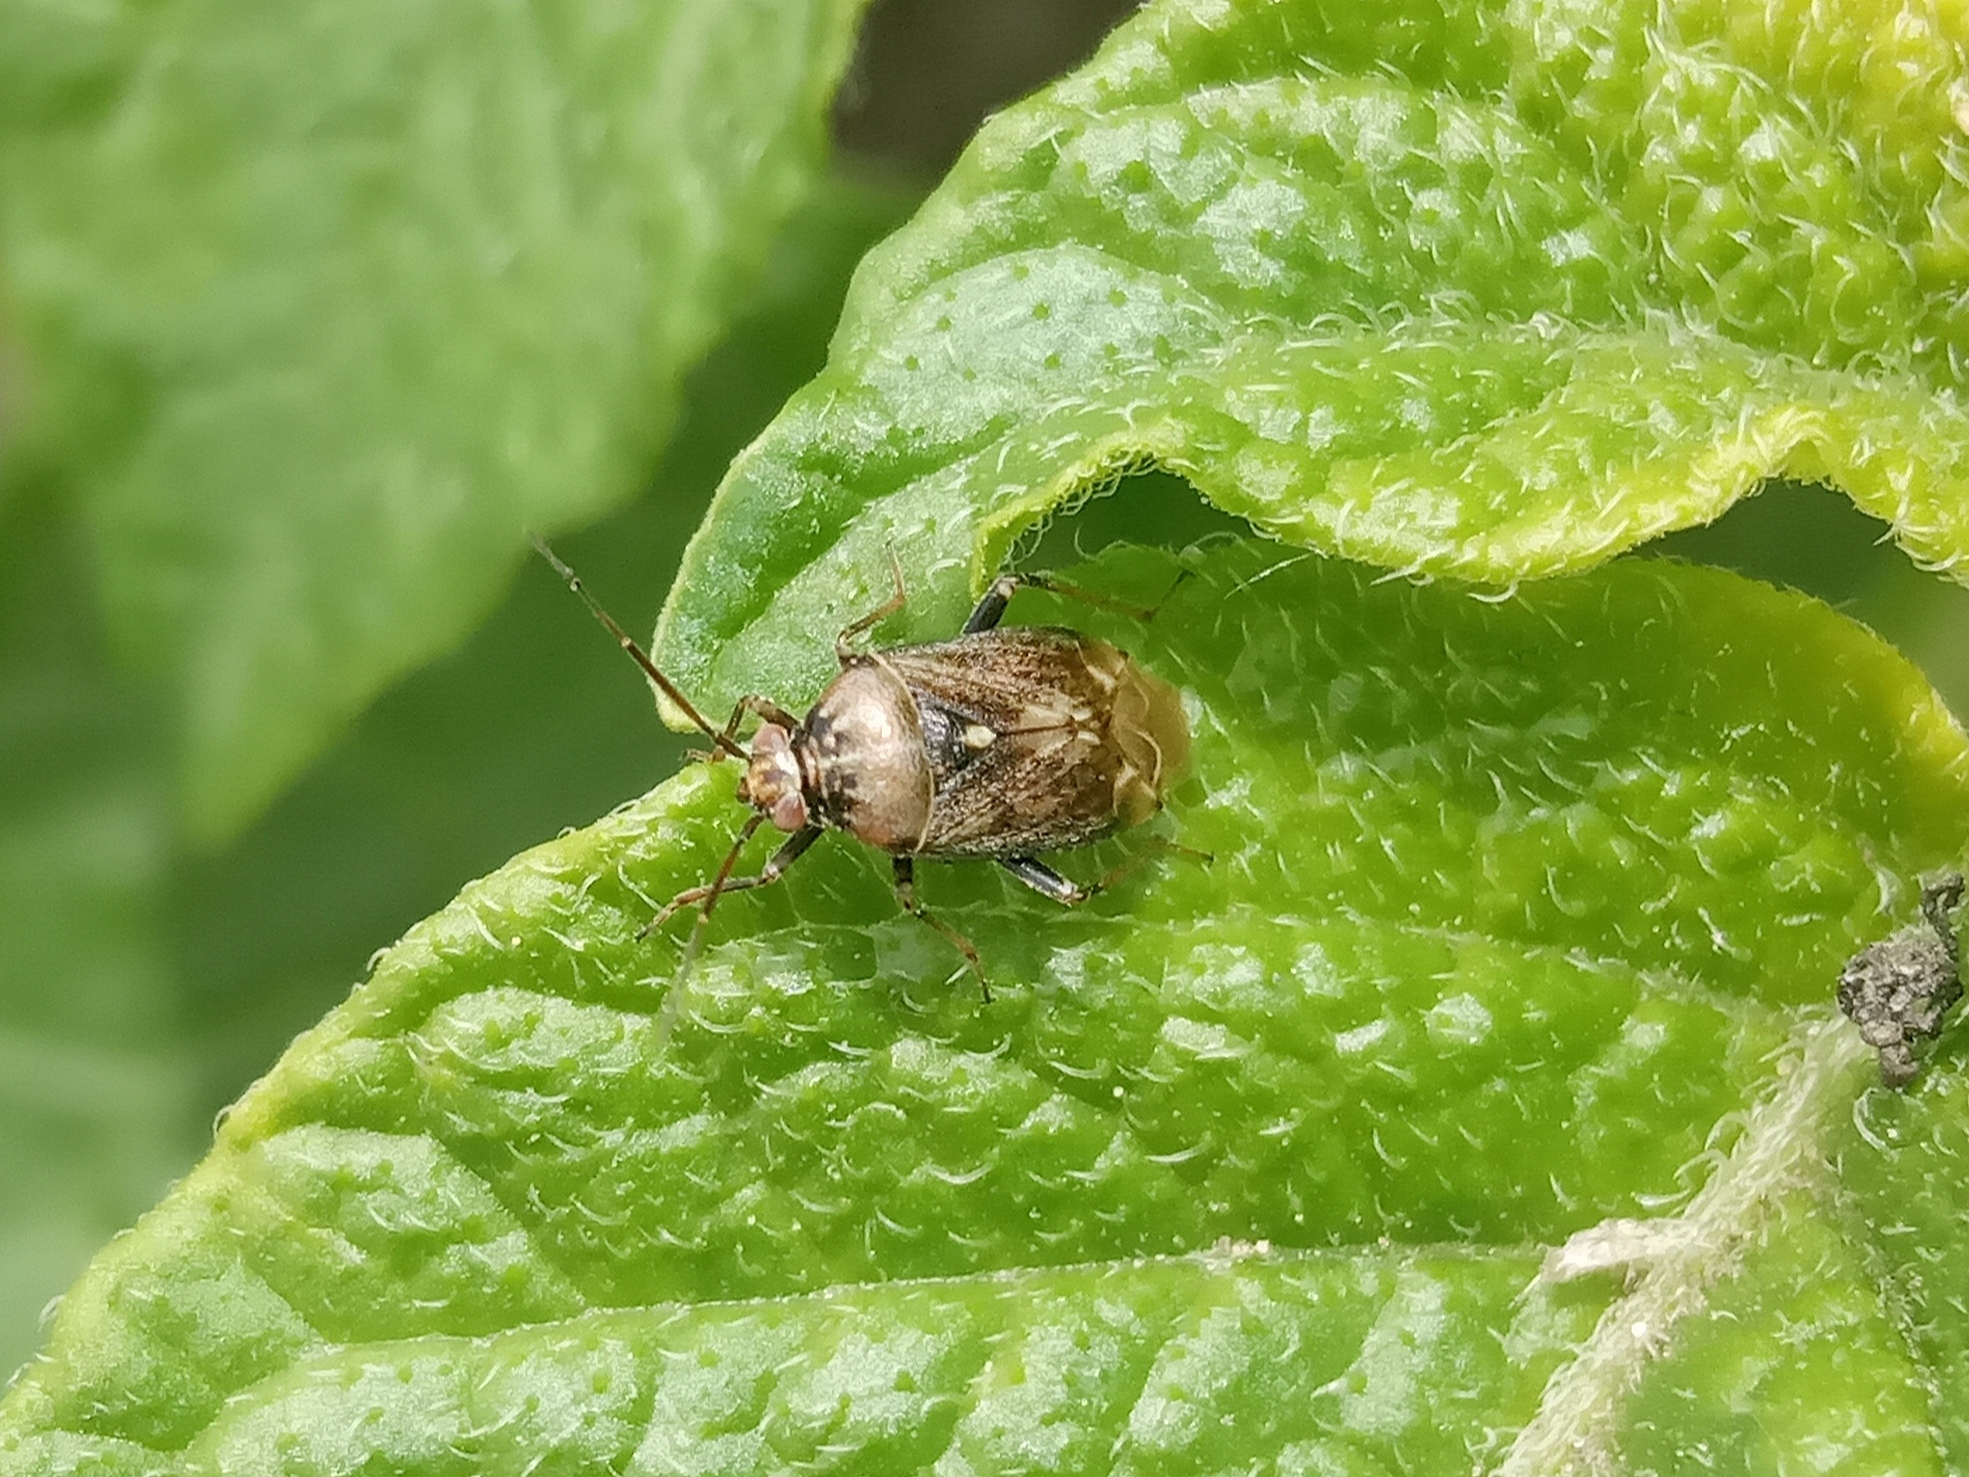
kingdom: Animalia
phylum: Arthropoda
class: Insecta
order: Hemiptera
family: Miridae
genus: Lygus
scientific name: Lygus rugulipennis
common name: European tarnished plant bug
